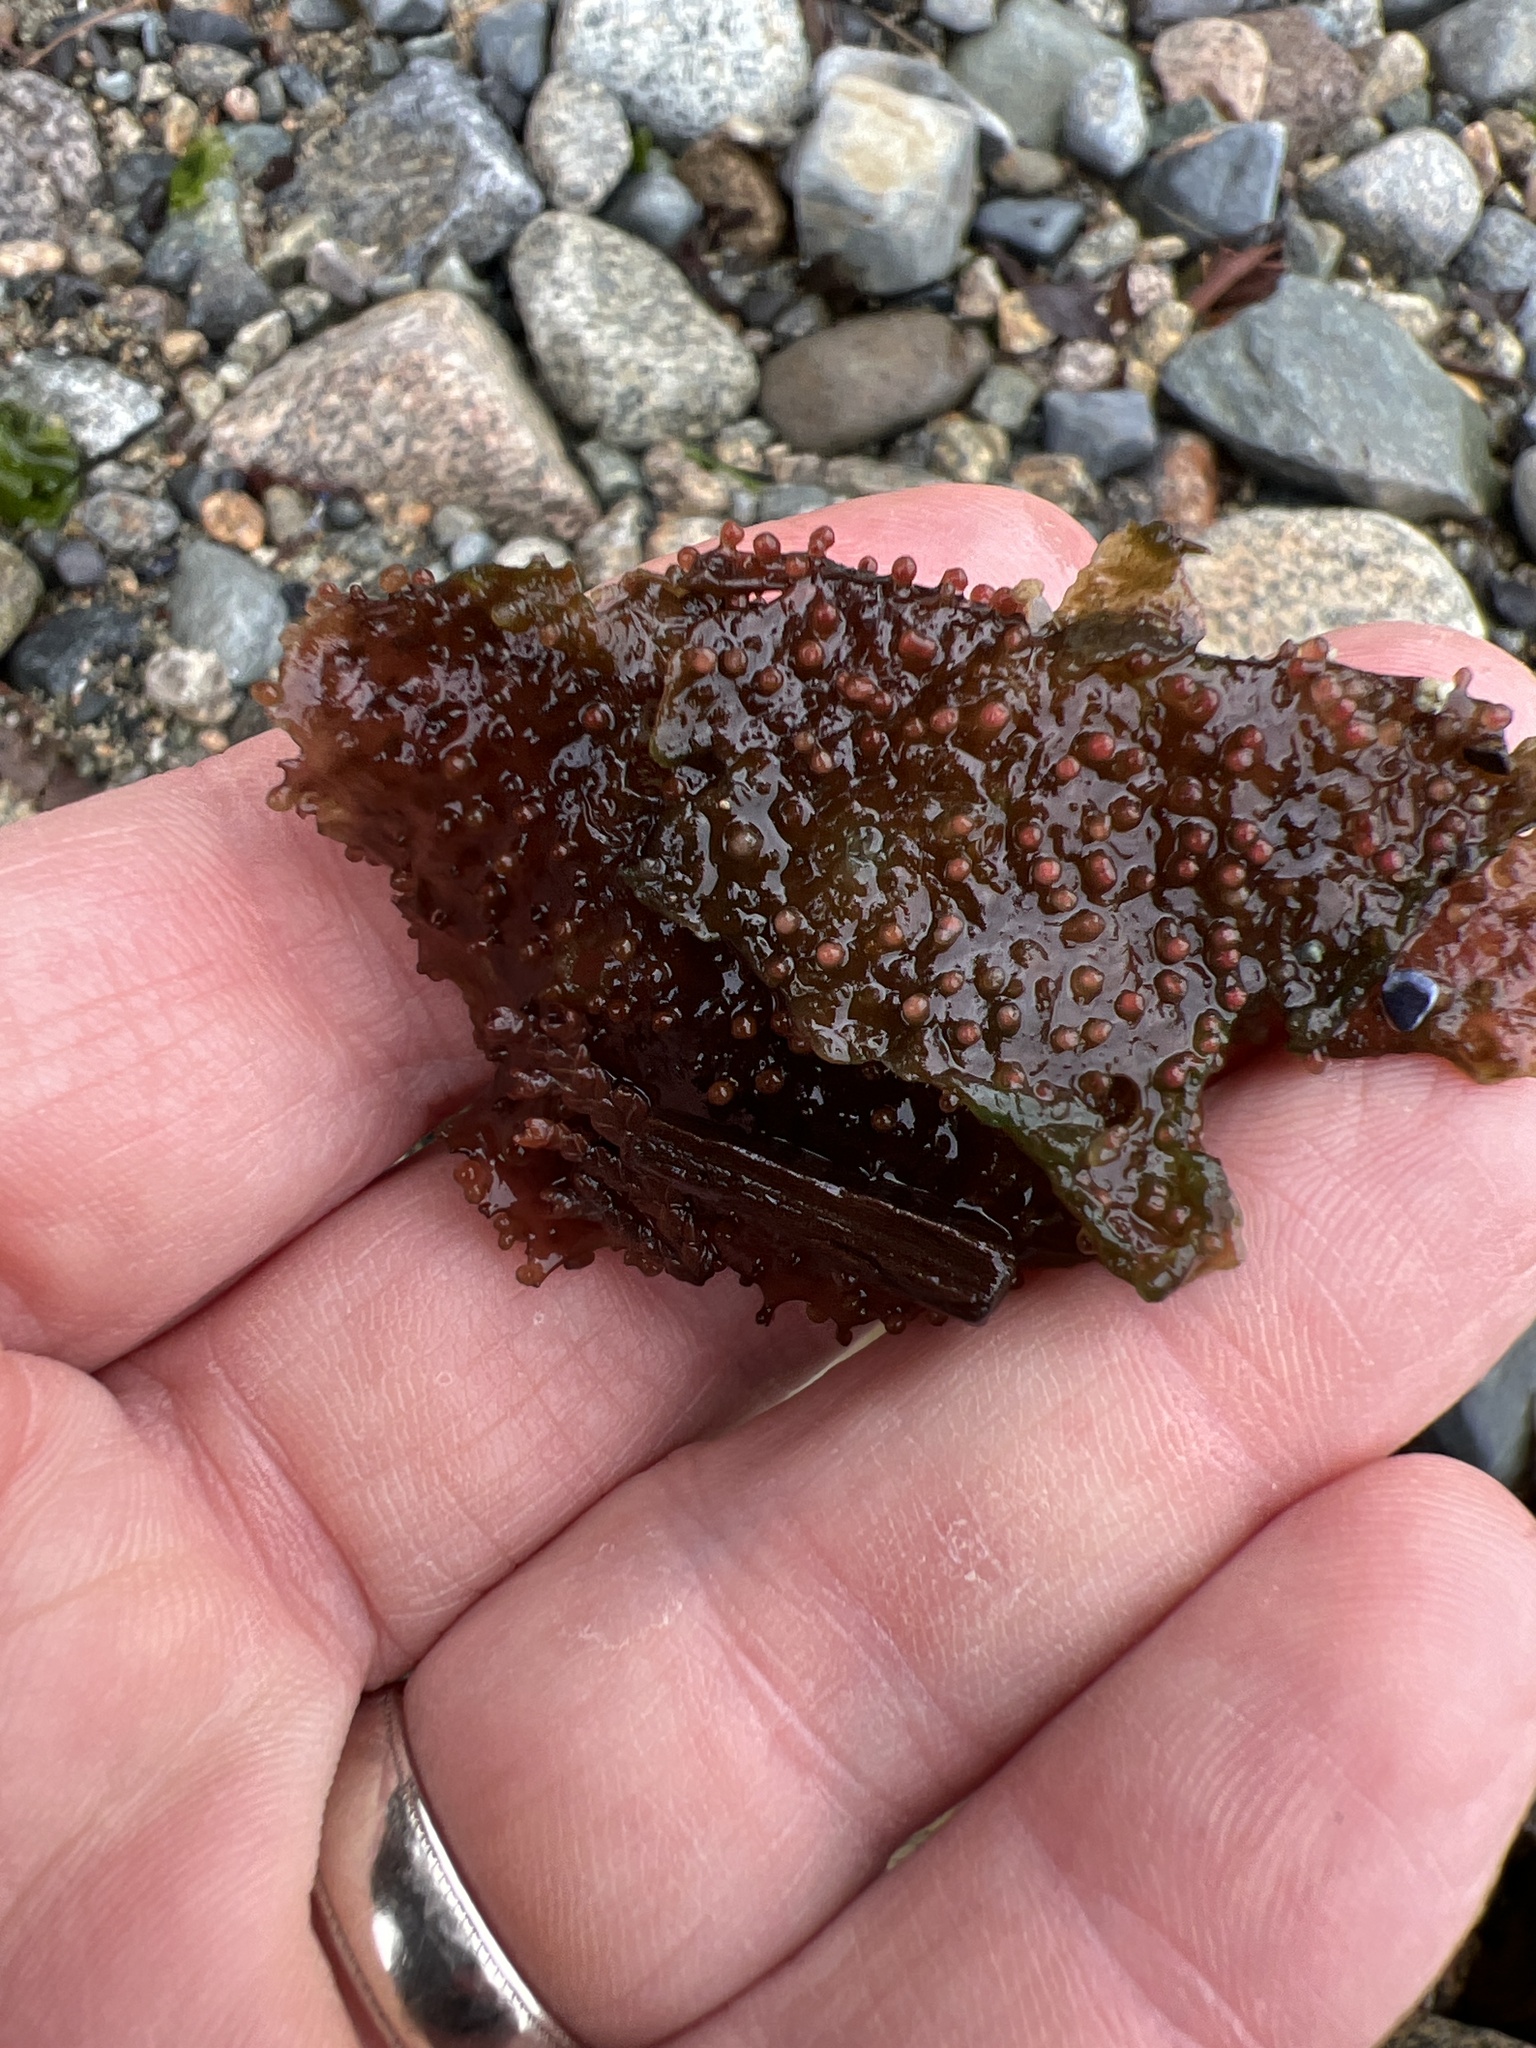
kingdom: Plantae
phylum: Rhodophyta
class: Florideophyceae
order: Gigartinales
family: Gigartinaceae
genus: Chondracanthus
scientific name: Chondracanthus exasperatus
